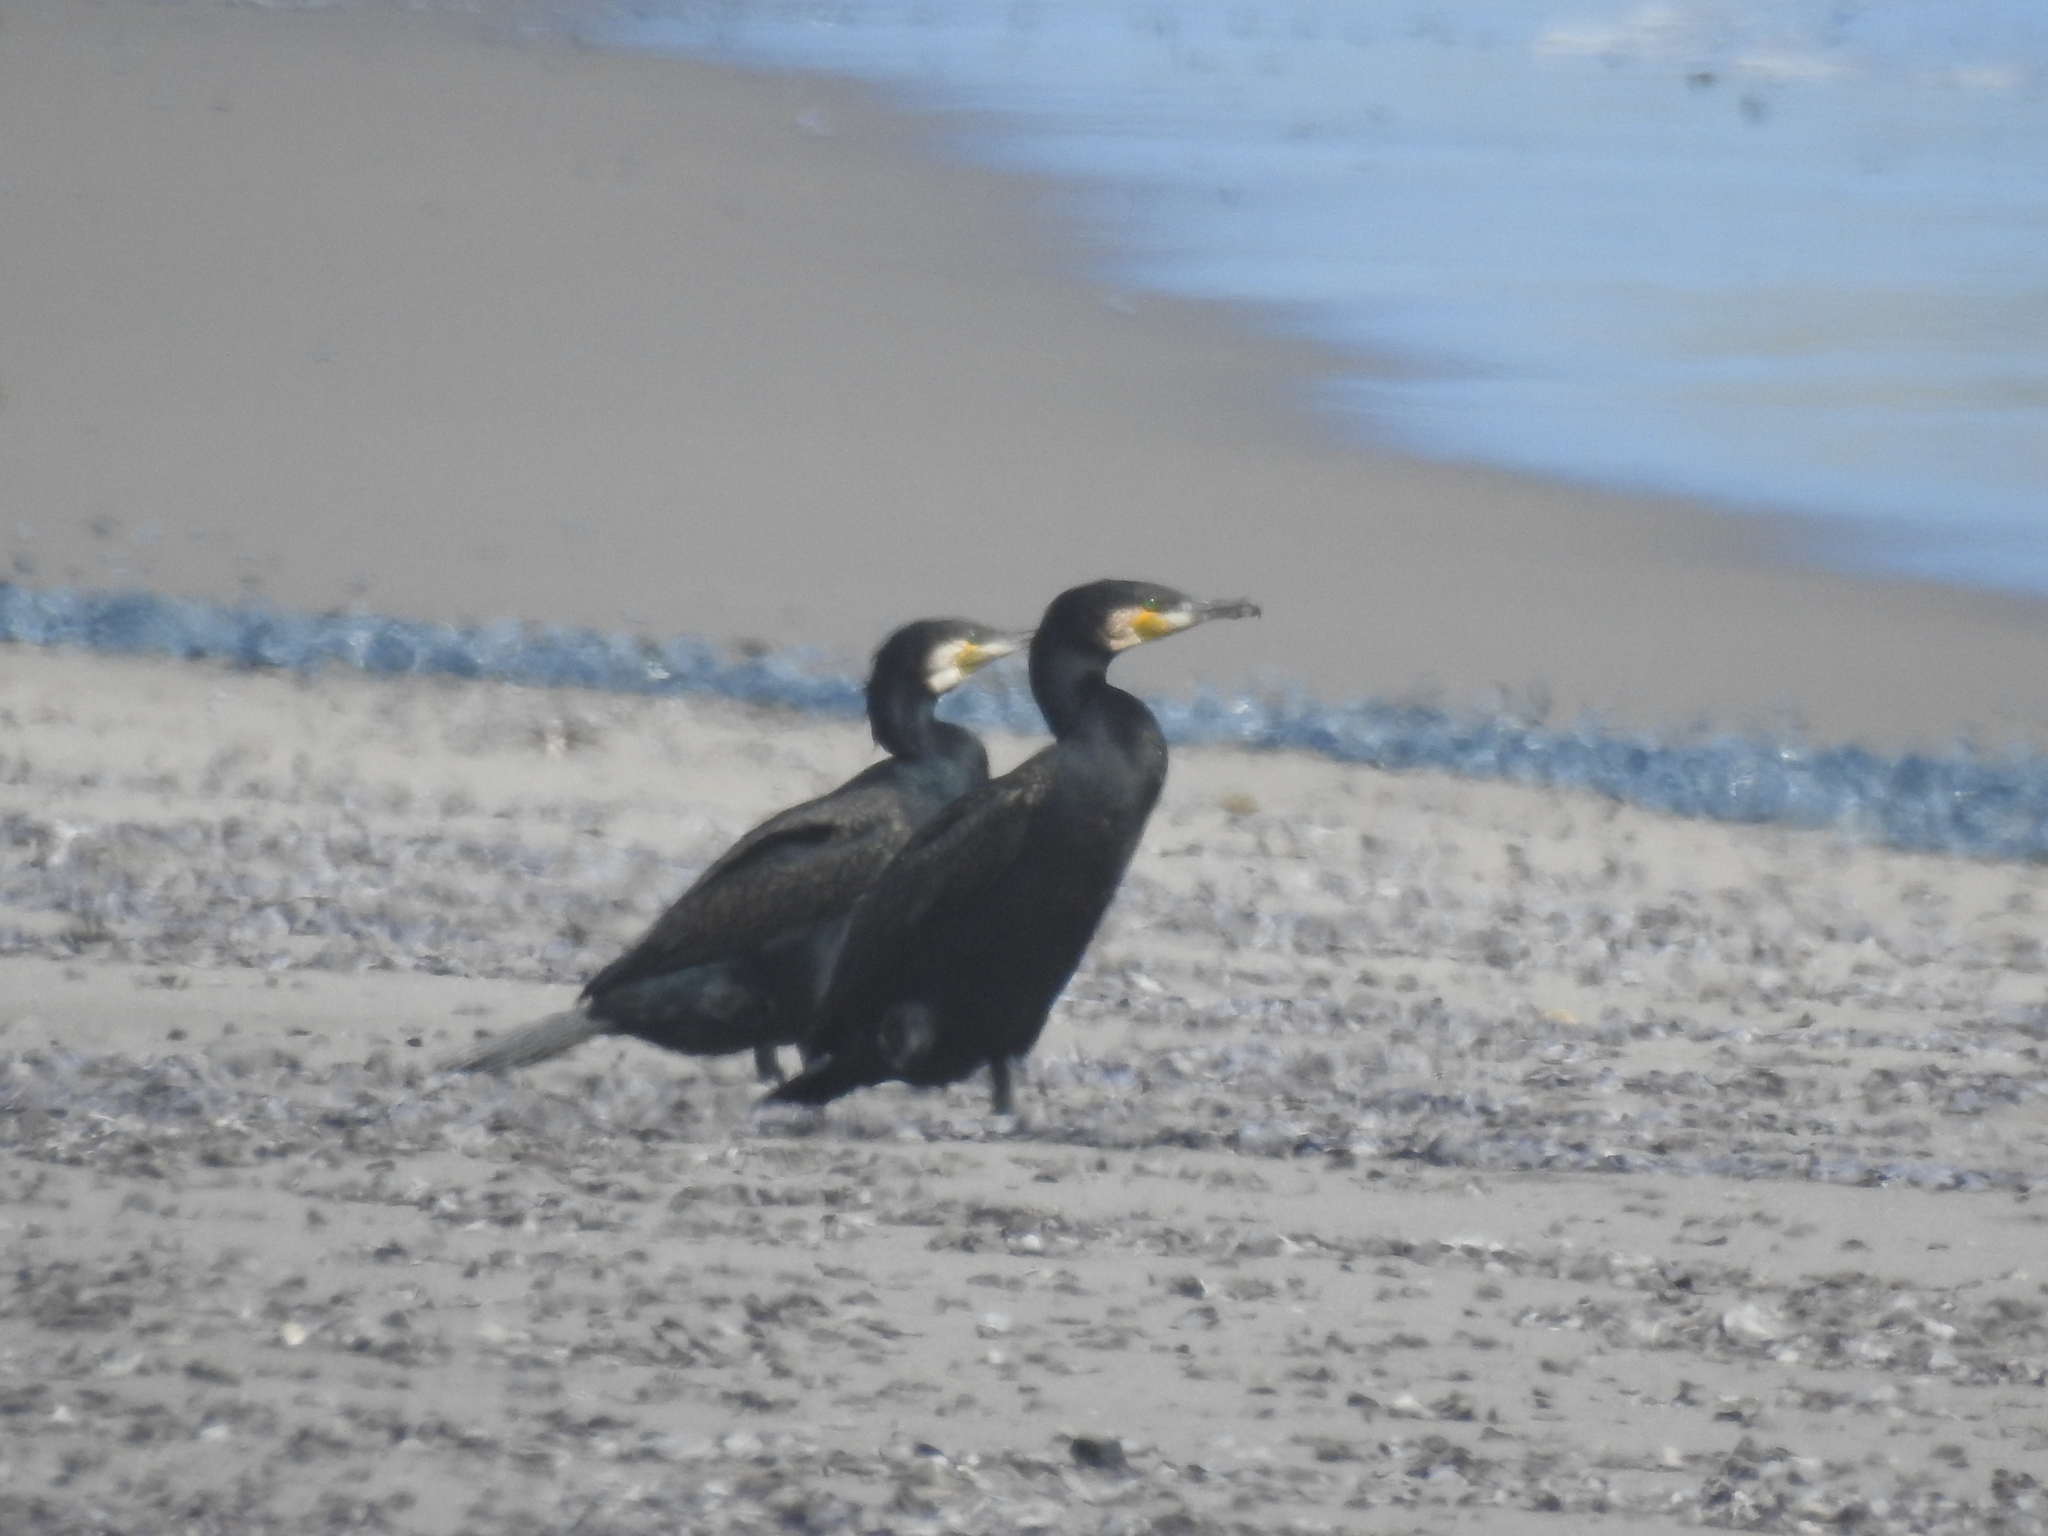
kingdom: Animalia
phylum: Chordata
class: Aves
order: Suliformes
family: Phalacrocoracidae
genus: Phalacrocorax
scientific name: Phalacrocorax carbo
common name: Great cormorant
